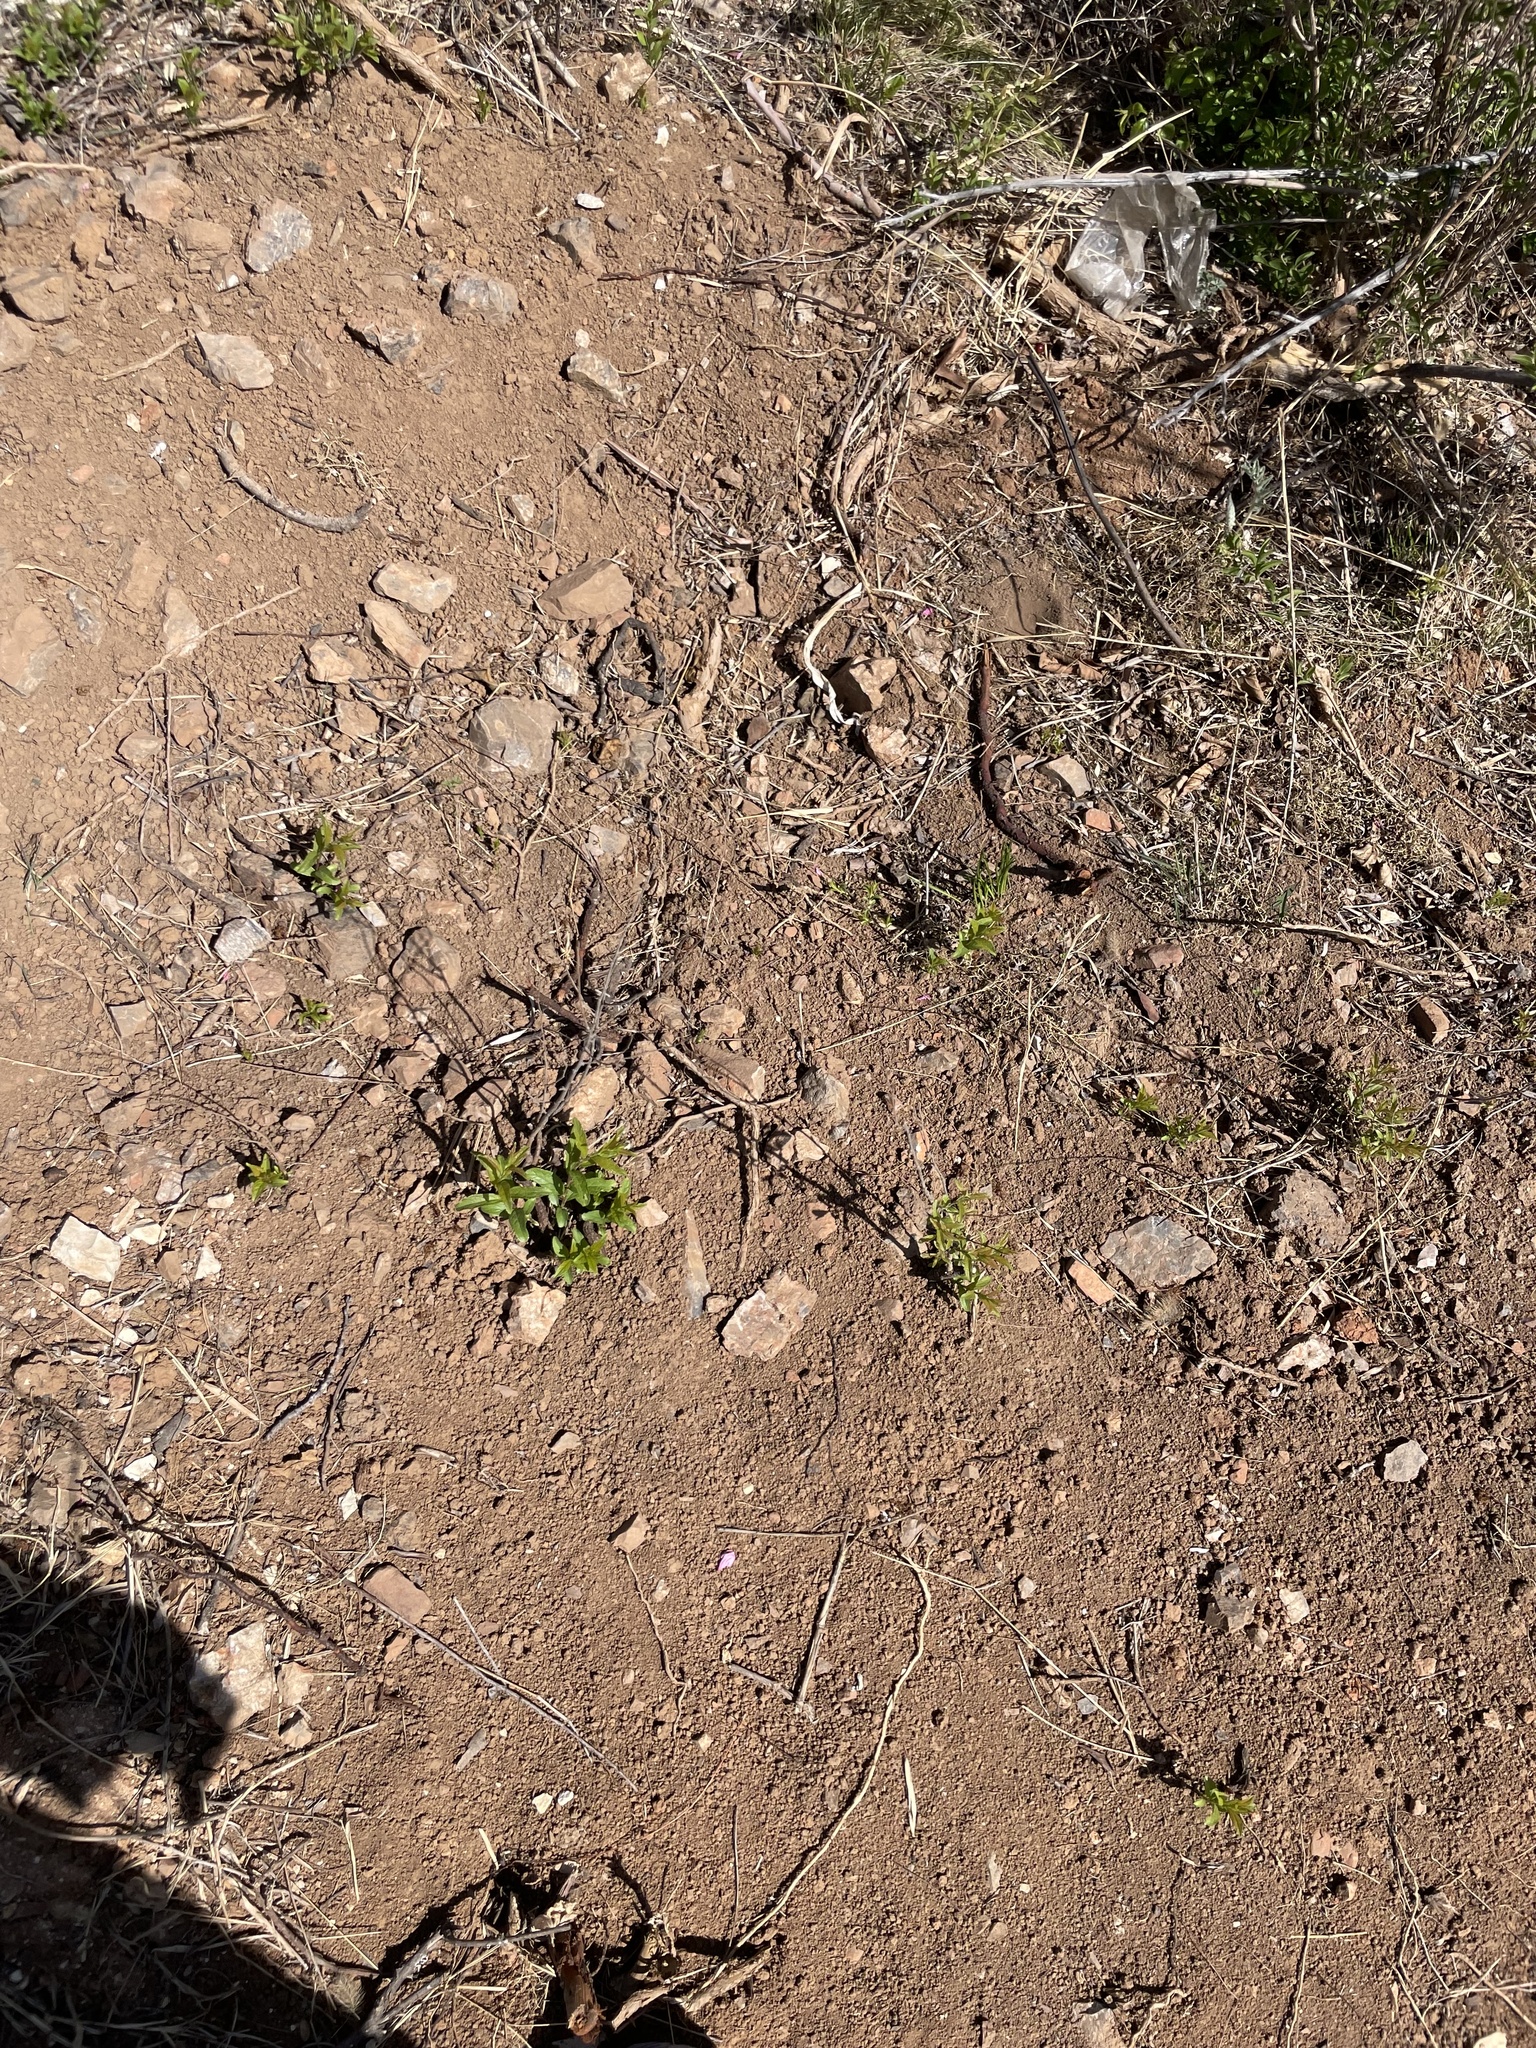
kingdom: Plantae
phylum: Tracheophyta
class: Magnoliopsida
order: Rosales
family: Rosaceae
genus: Prunus
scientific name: Prunus humilis
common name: Humble bush cherry
